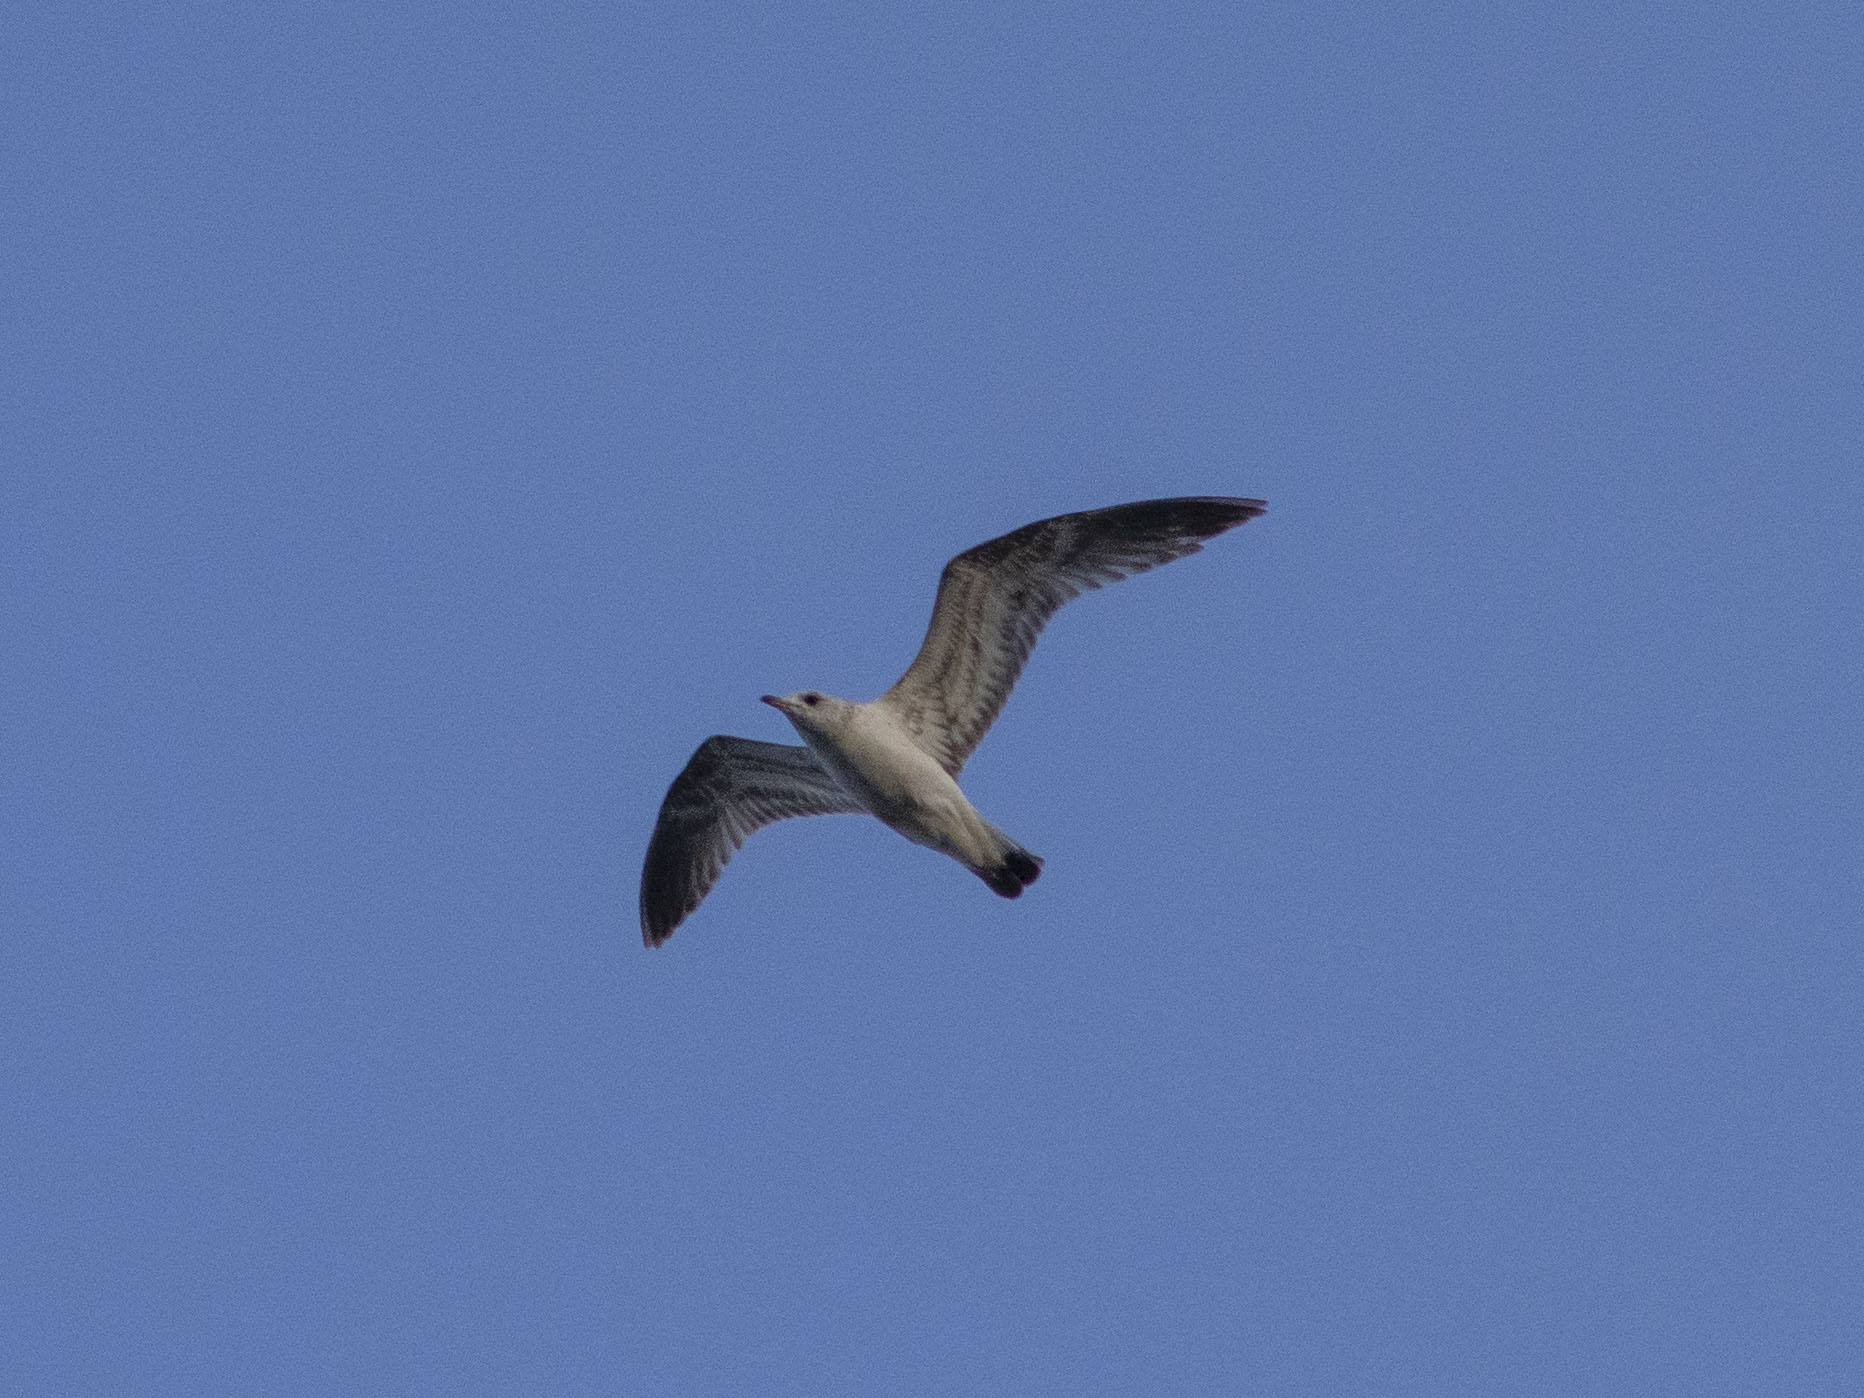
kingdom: Animalia
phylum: Chordata
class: Aves
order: Charadriiformes
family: Laridae
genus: Larus
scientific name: Larus canus
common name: Mew gull
